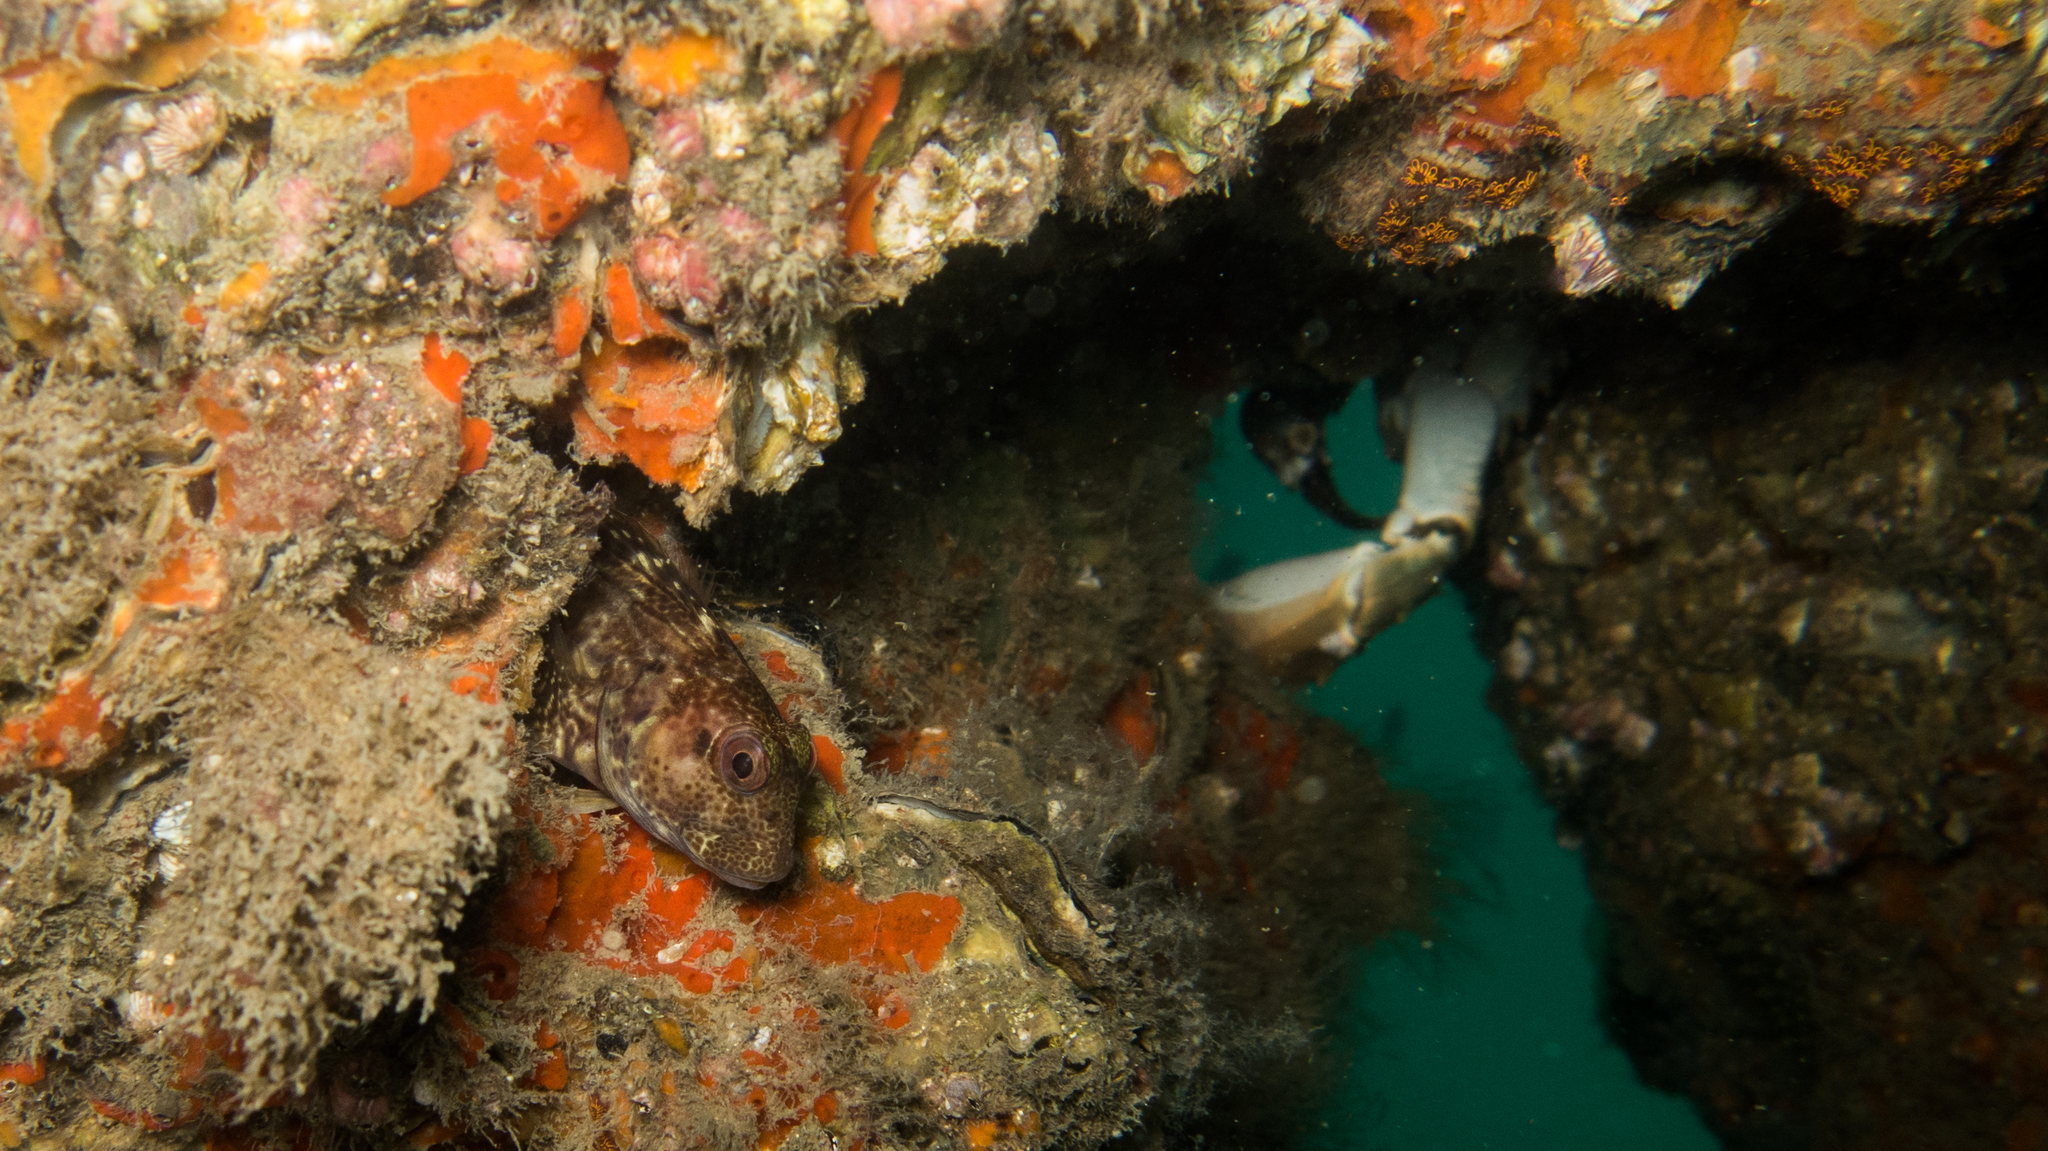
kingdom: Animalia
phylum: Chordata
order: Perciformes
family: Blenniidae
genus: Parablennius
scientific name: Parablennius pilicornis
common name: Ringneck blenny
